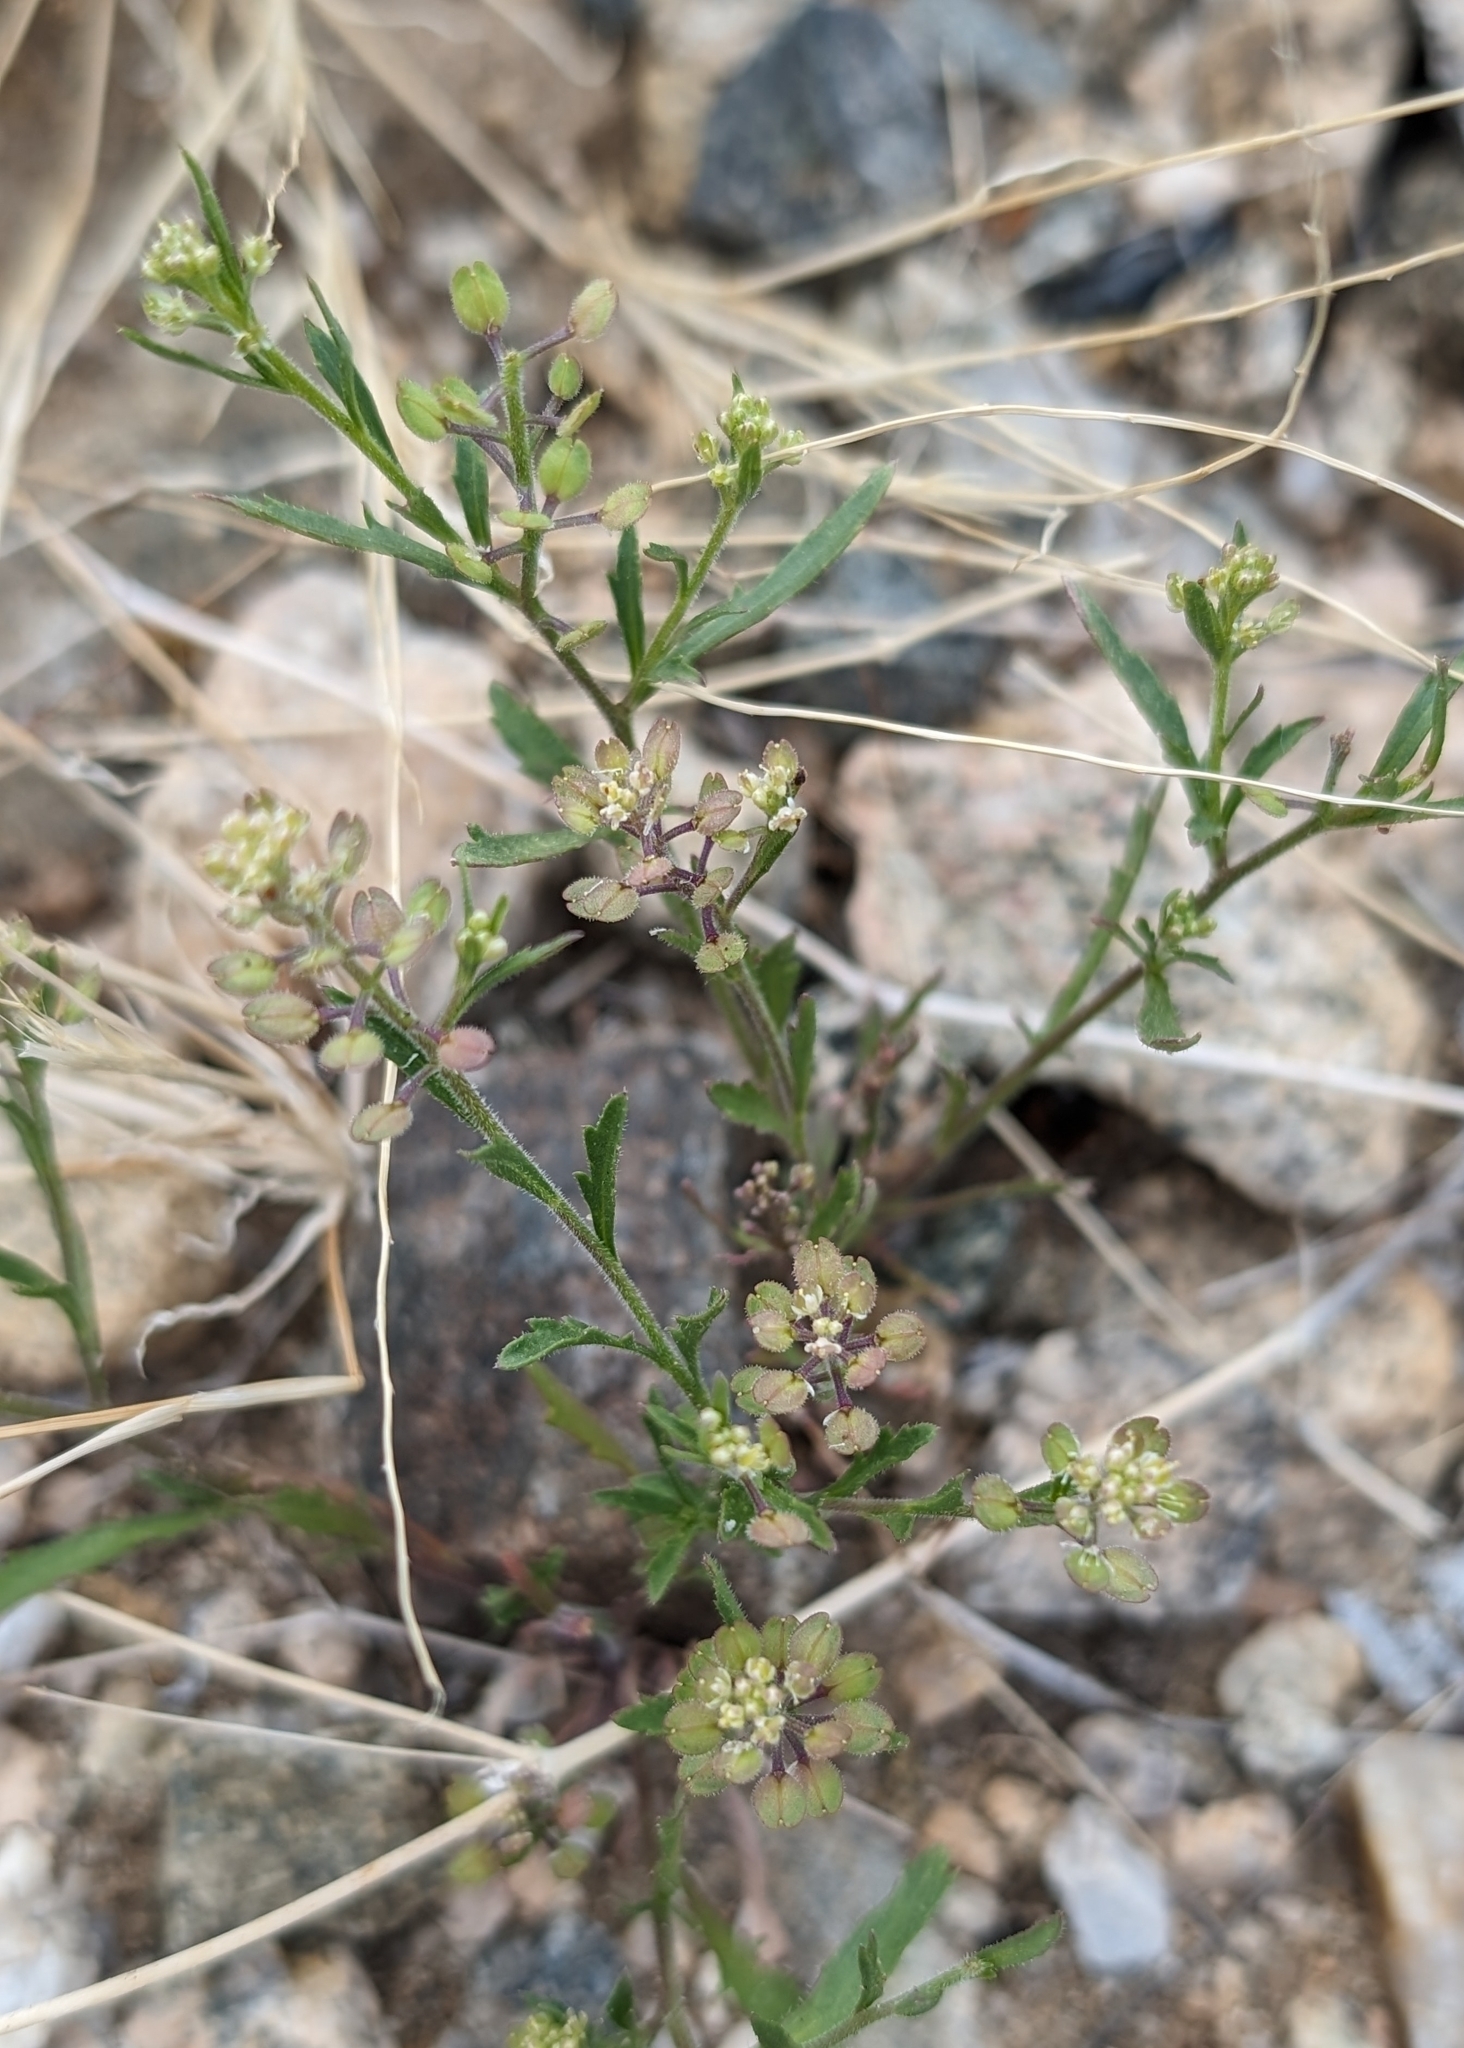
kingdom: Plantae
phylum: Tracheophyta
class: Magnoliopsida
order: Brassicales
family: Brassicaceae
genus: Lepidium
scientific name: Lepidium lasiocarpum
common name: Hairy-pod pepperwort
